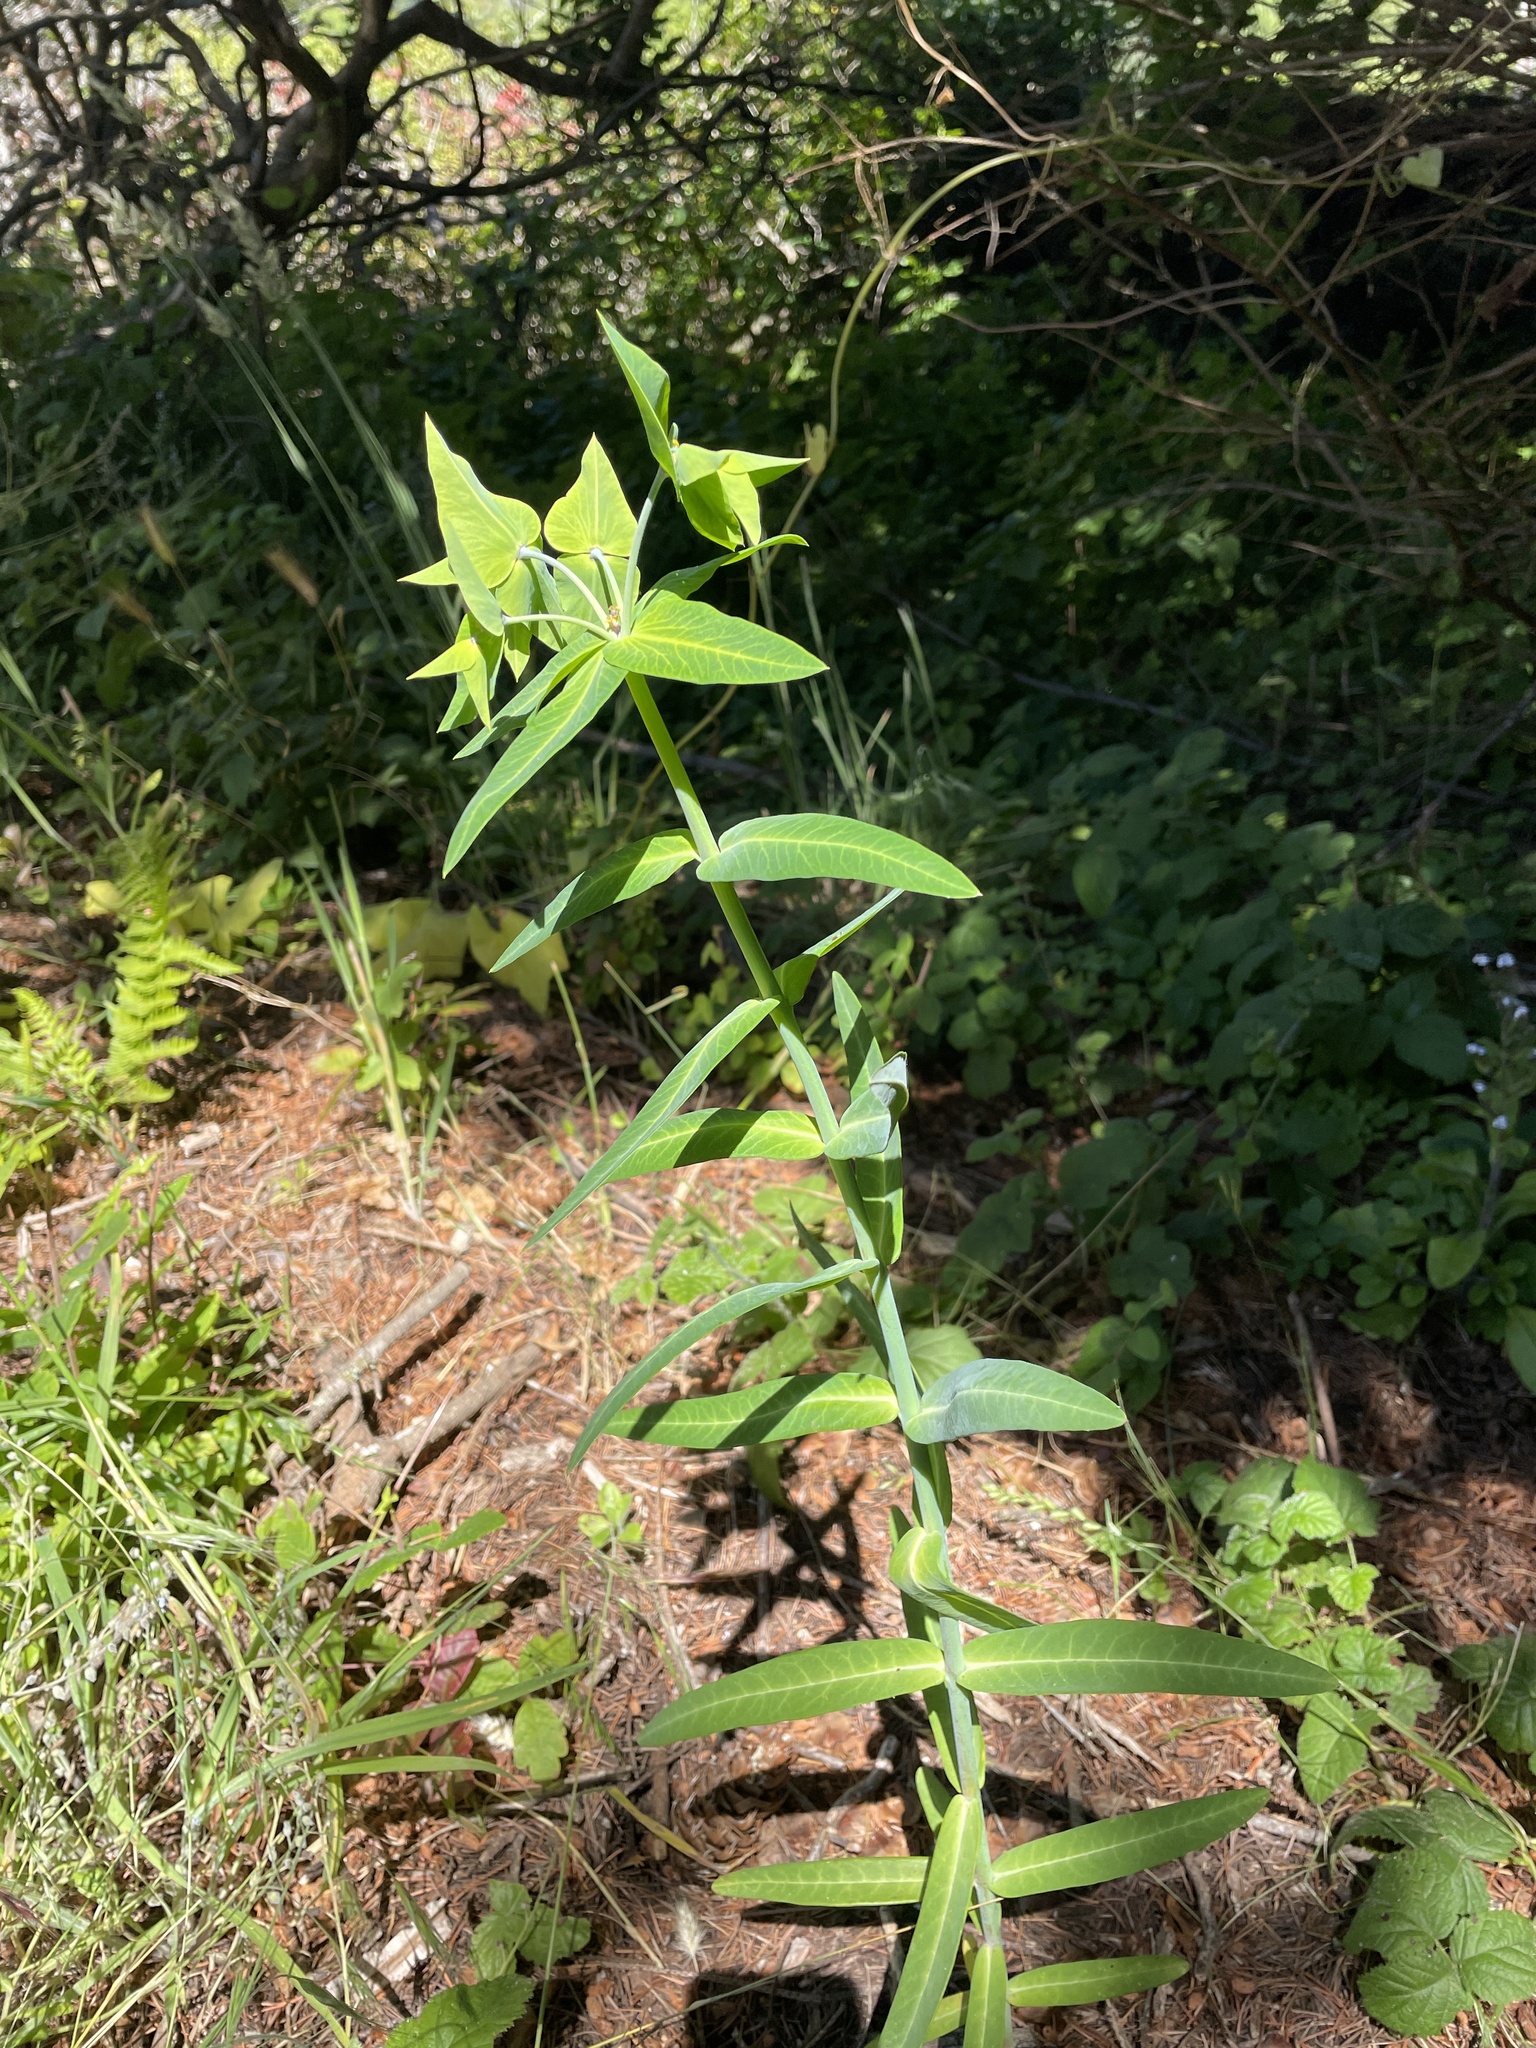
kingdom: Plantae
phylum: Tracheophyta
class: Magnoliopsida
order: Malpighiales
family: Euphorbiaceae
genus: Euphorbia
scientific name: Euphorbia lathyris
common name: Caper spurge
